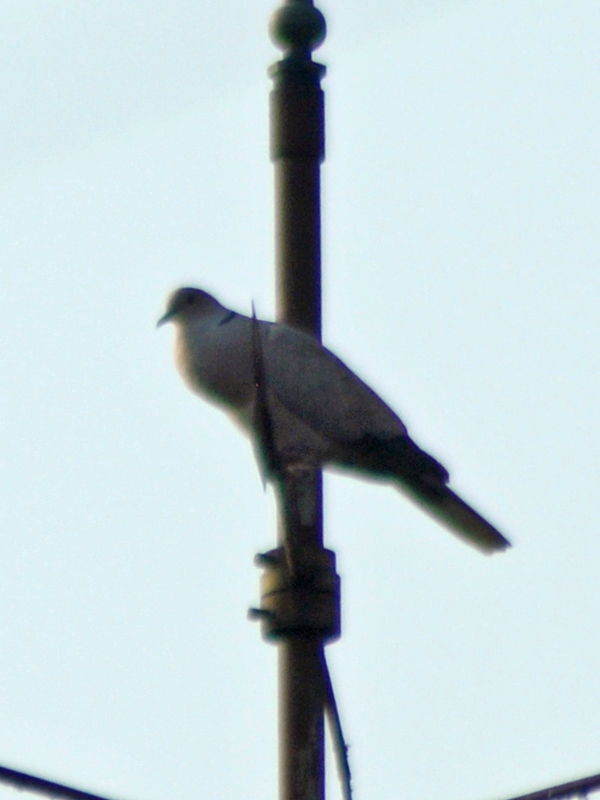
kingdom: Animalia
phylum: Chordata
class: Aves
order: Columbiformes
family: Columbidae
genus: Streptopelia
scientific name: Streptopelia decaocto
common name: Eurasian collared dove
